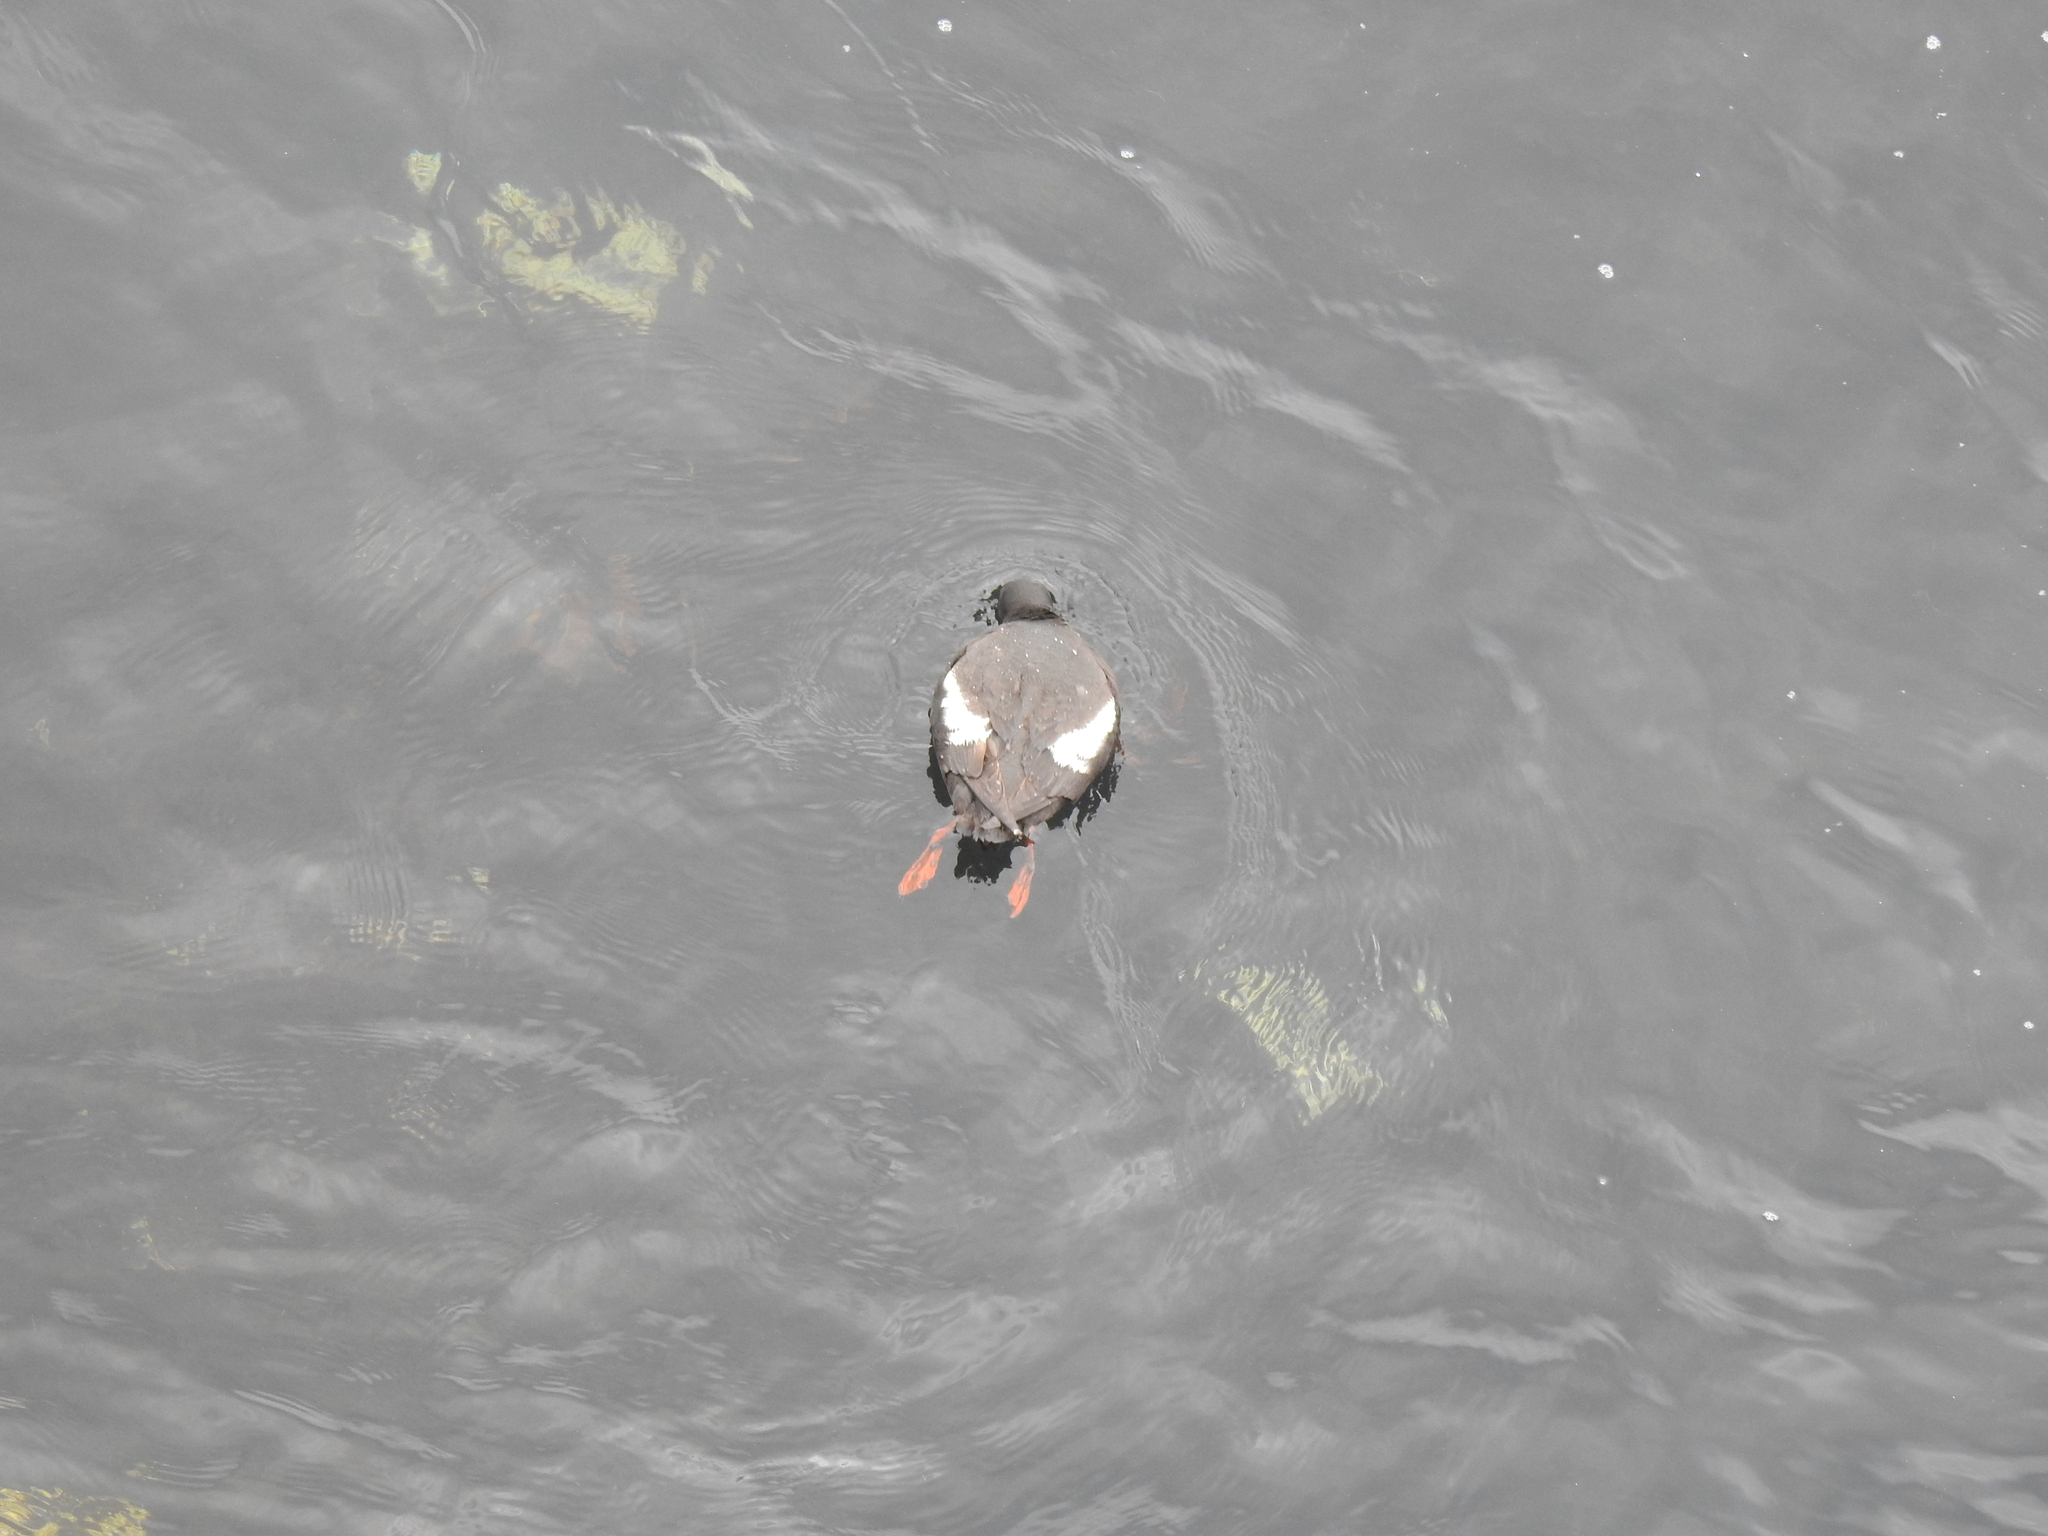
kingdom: Animalia
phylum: Chordata
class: Aves
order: Charadriiformes
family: Alcidae
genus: Cepphus
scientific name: Cepphus columba
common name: Pigeon guillemot
